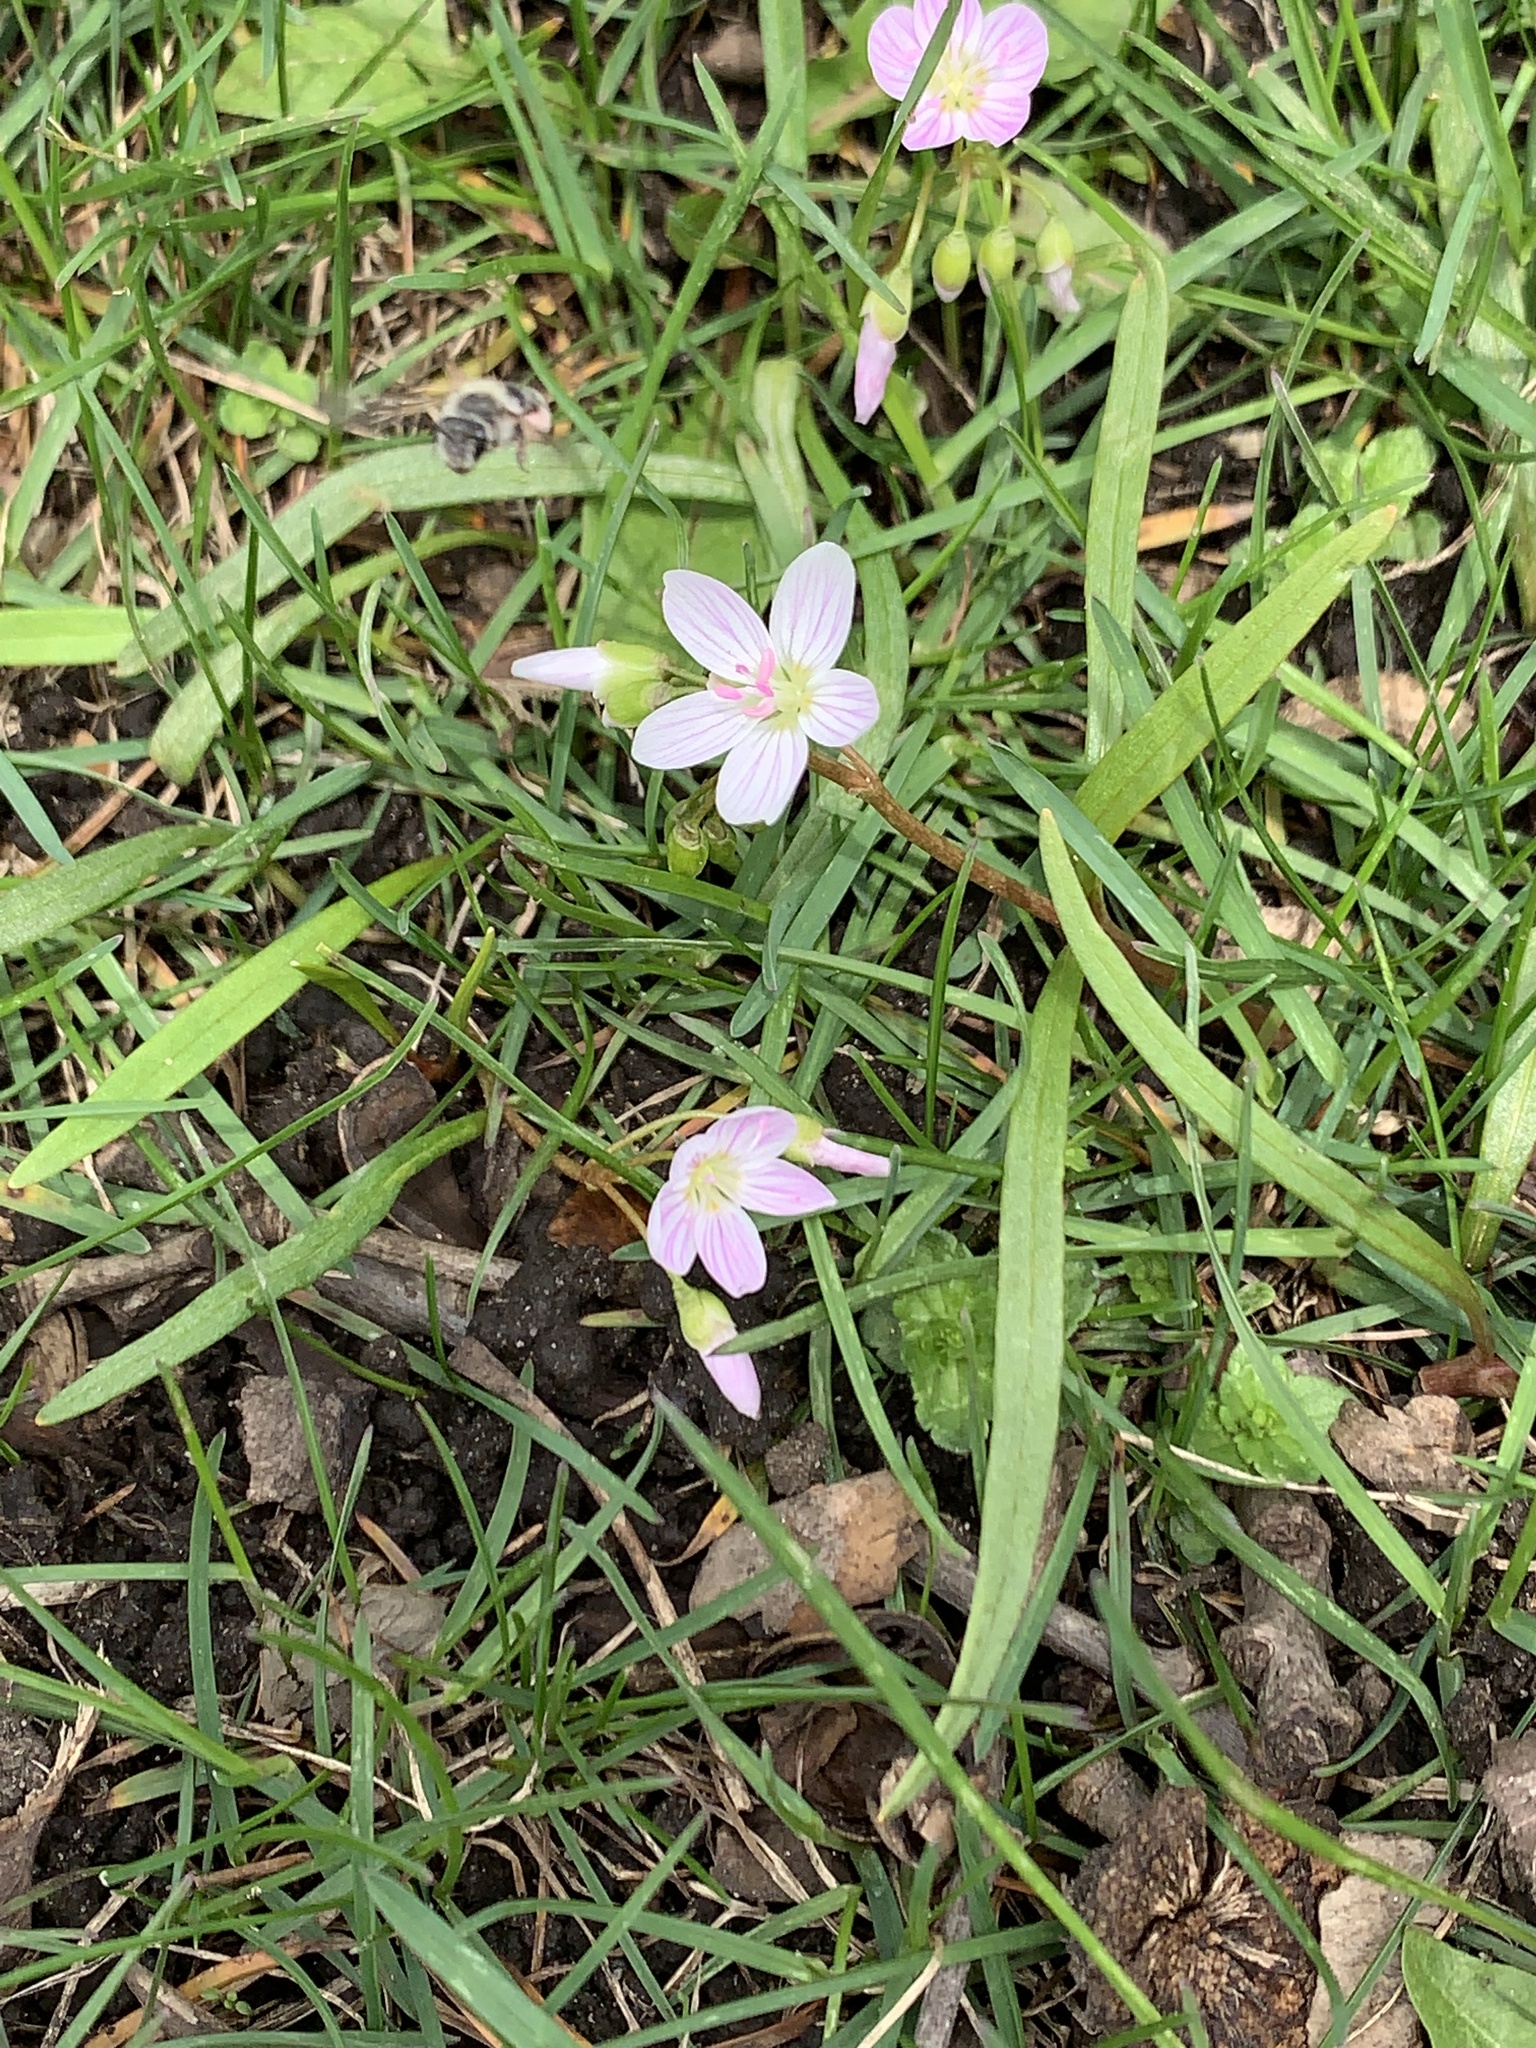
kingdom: Plantae
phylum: Tracheophyta
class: Magnoliopsida
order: Caryophyllales
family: Montiaceae
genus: Claytonia
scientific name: Claytonia virginica
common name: Virginia springbeauty
